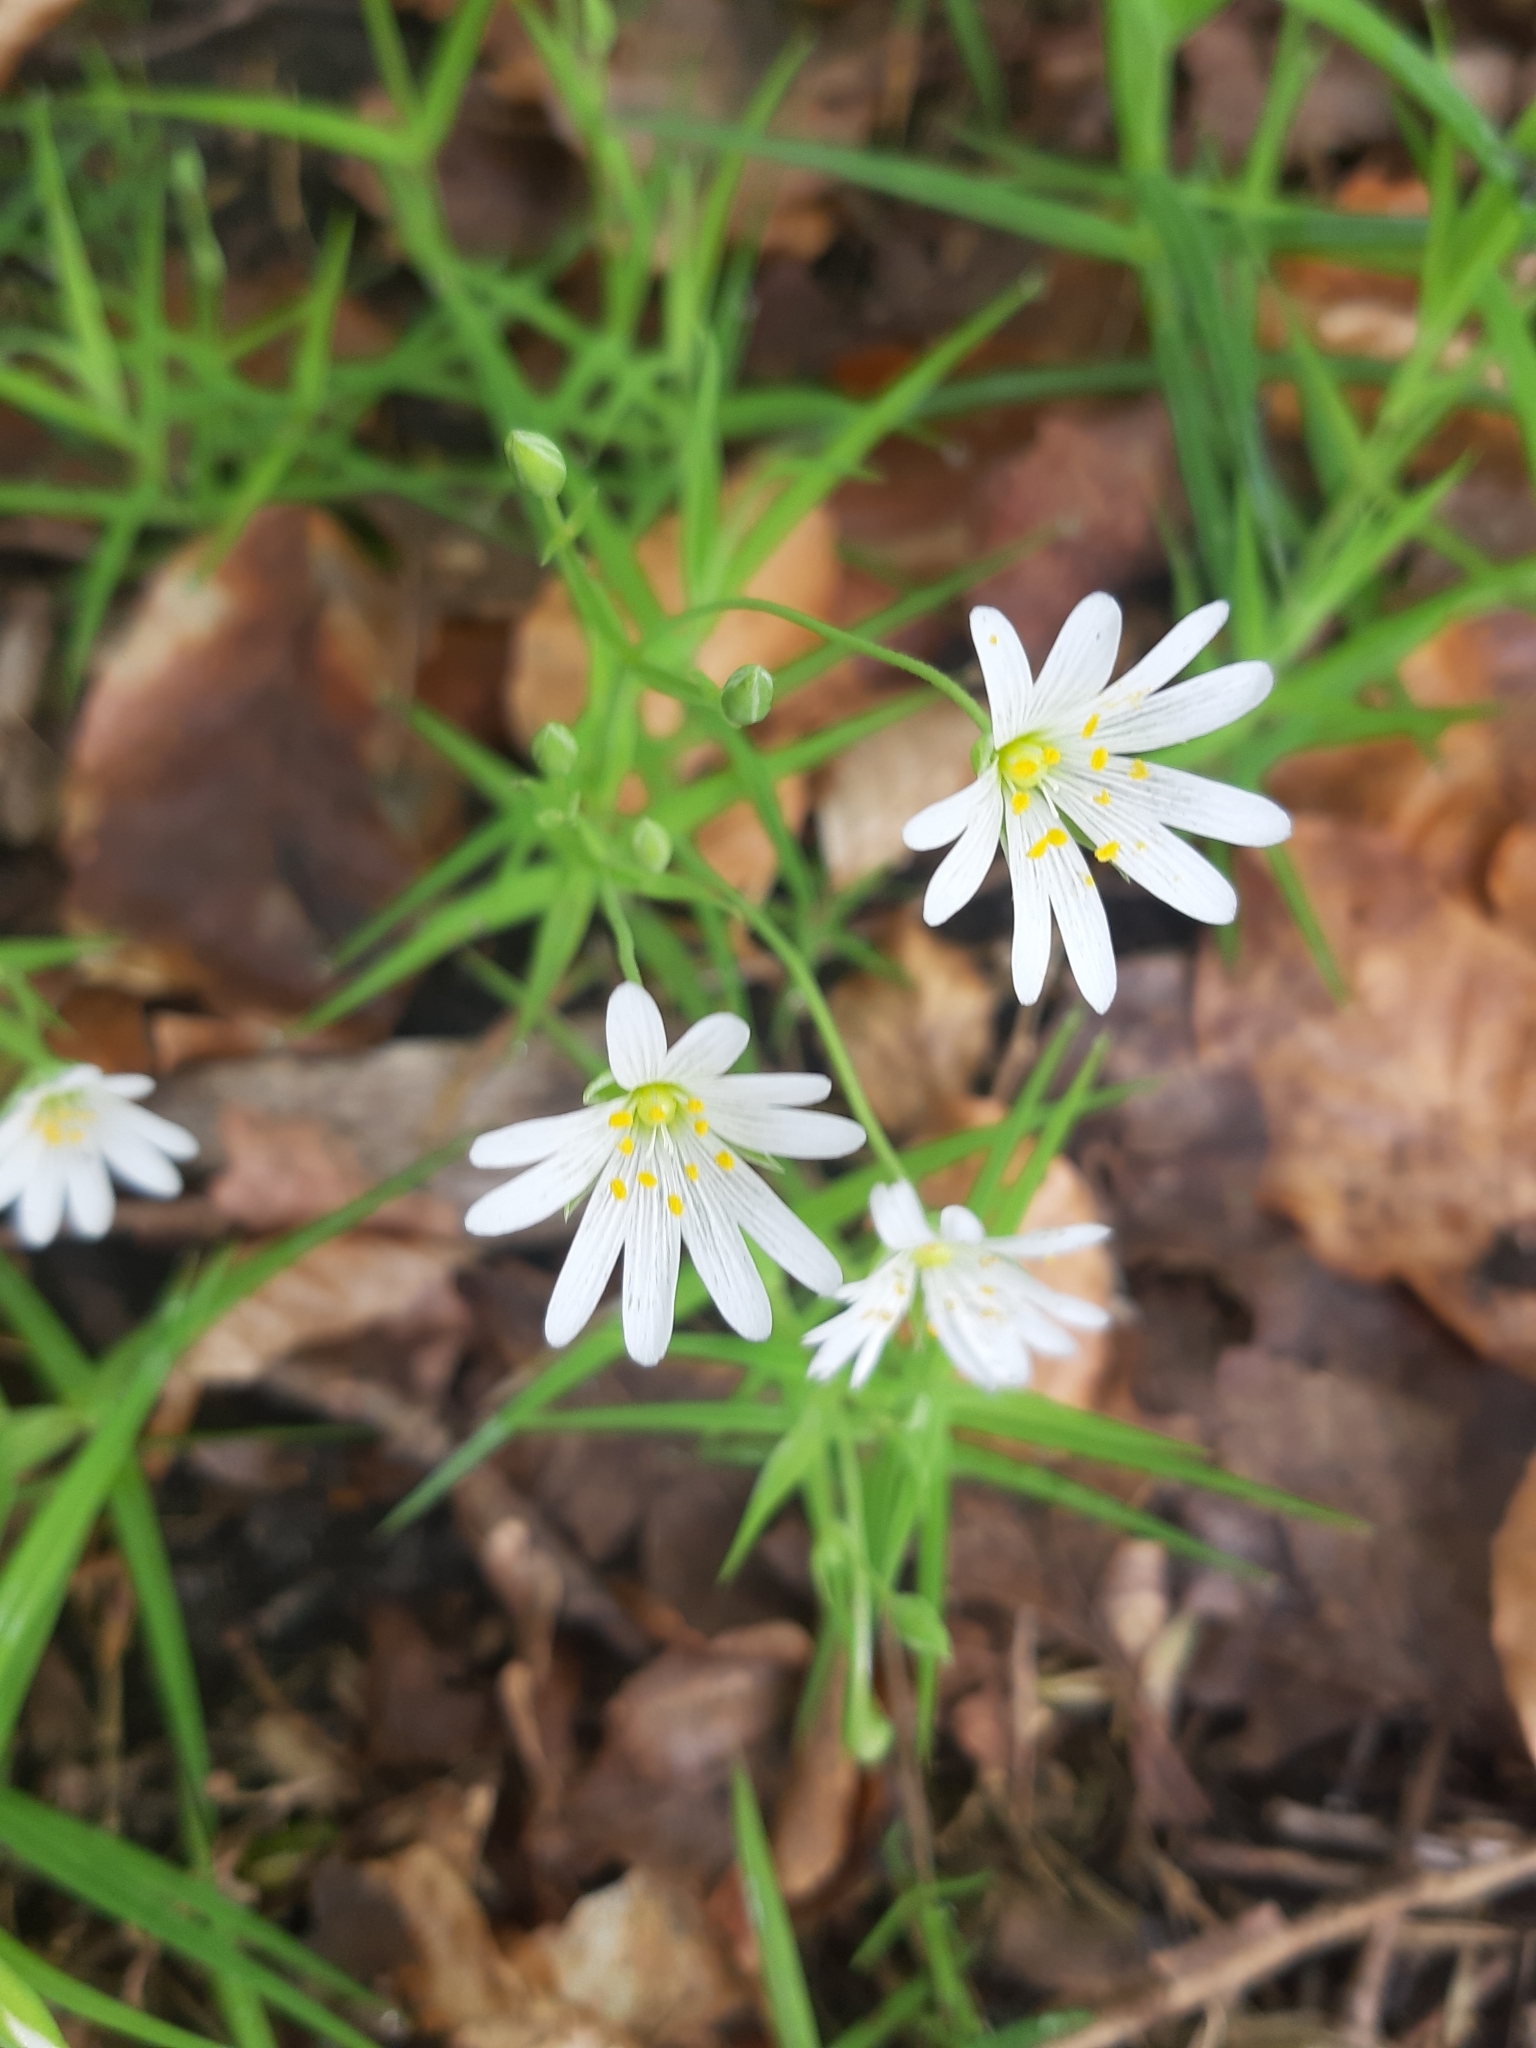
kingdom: Plantae
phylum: Tracheophyta
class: Magnoliopsida
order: Caryophyllales
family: Caryophyllaceae
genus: Rabelera
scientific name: Rabelera holostea
